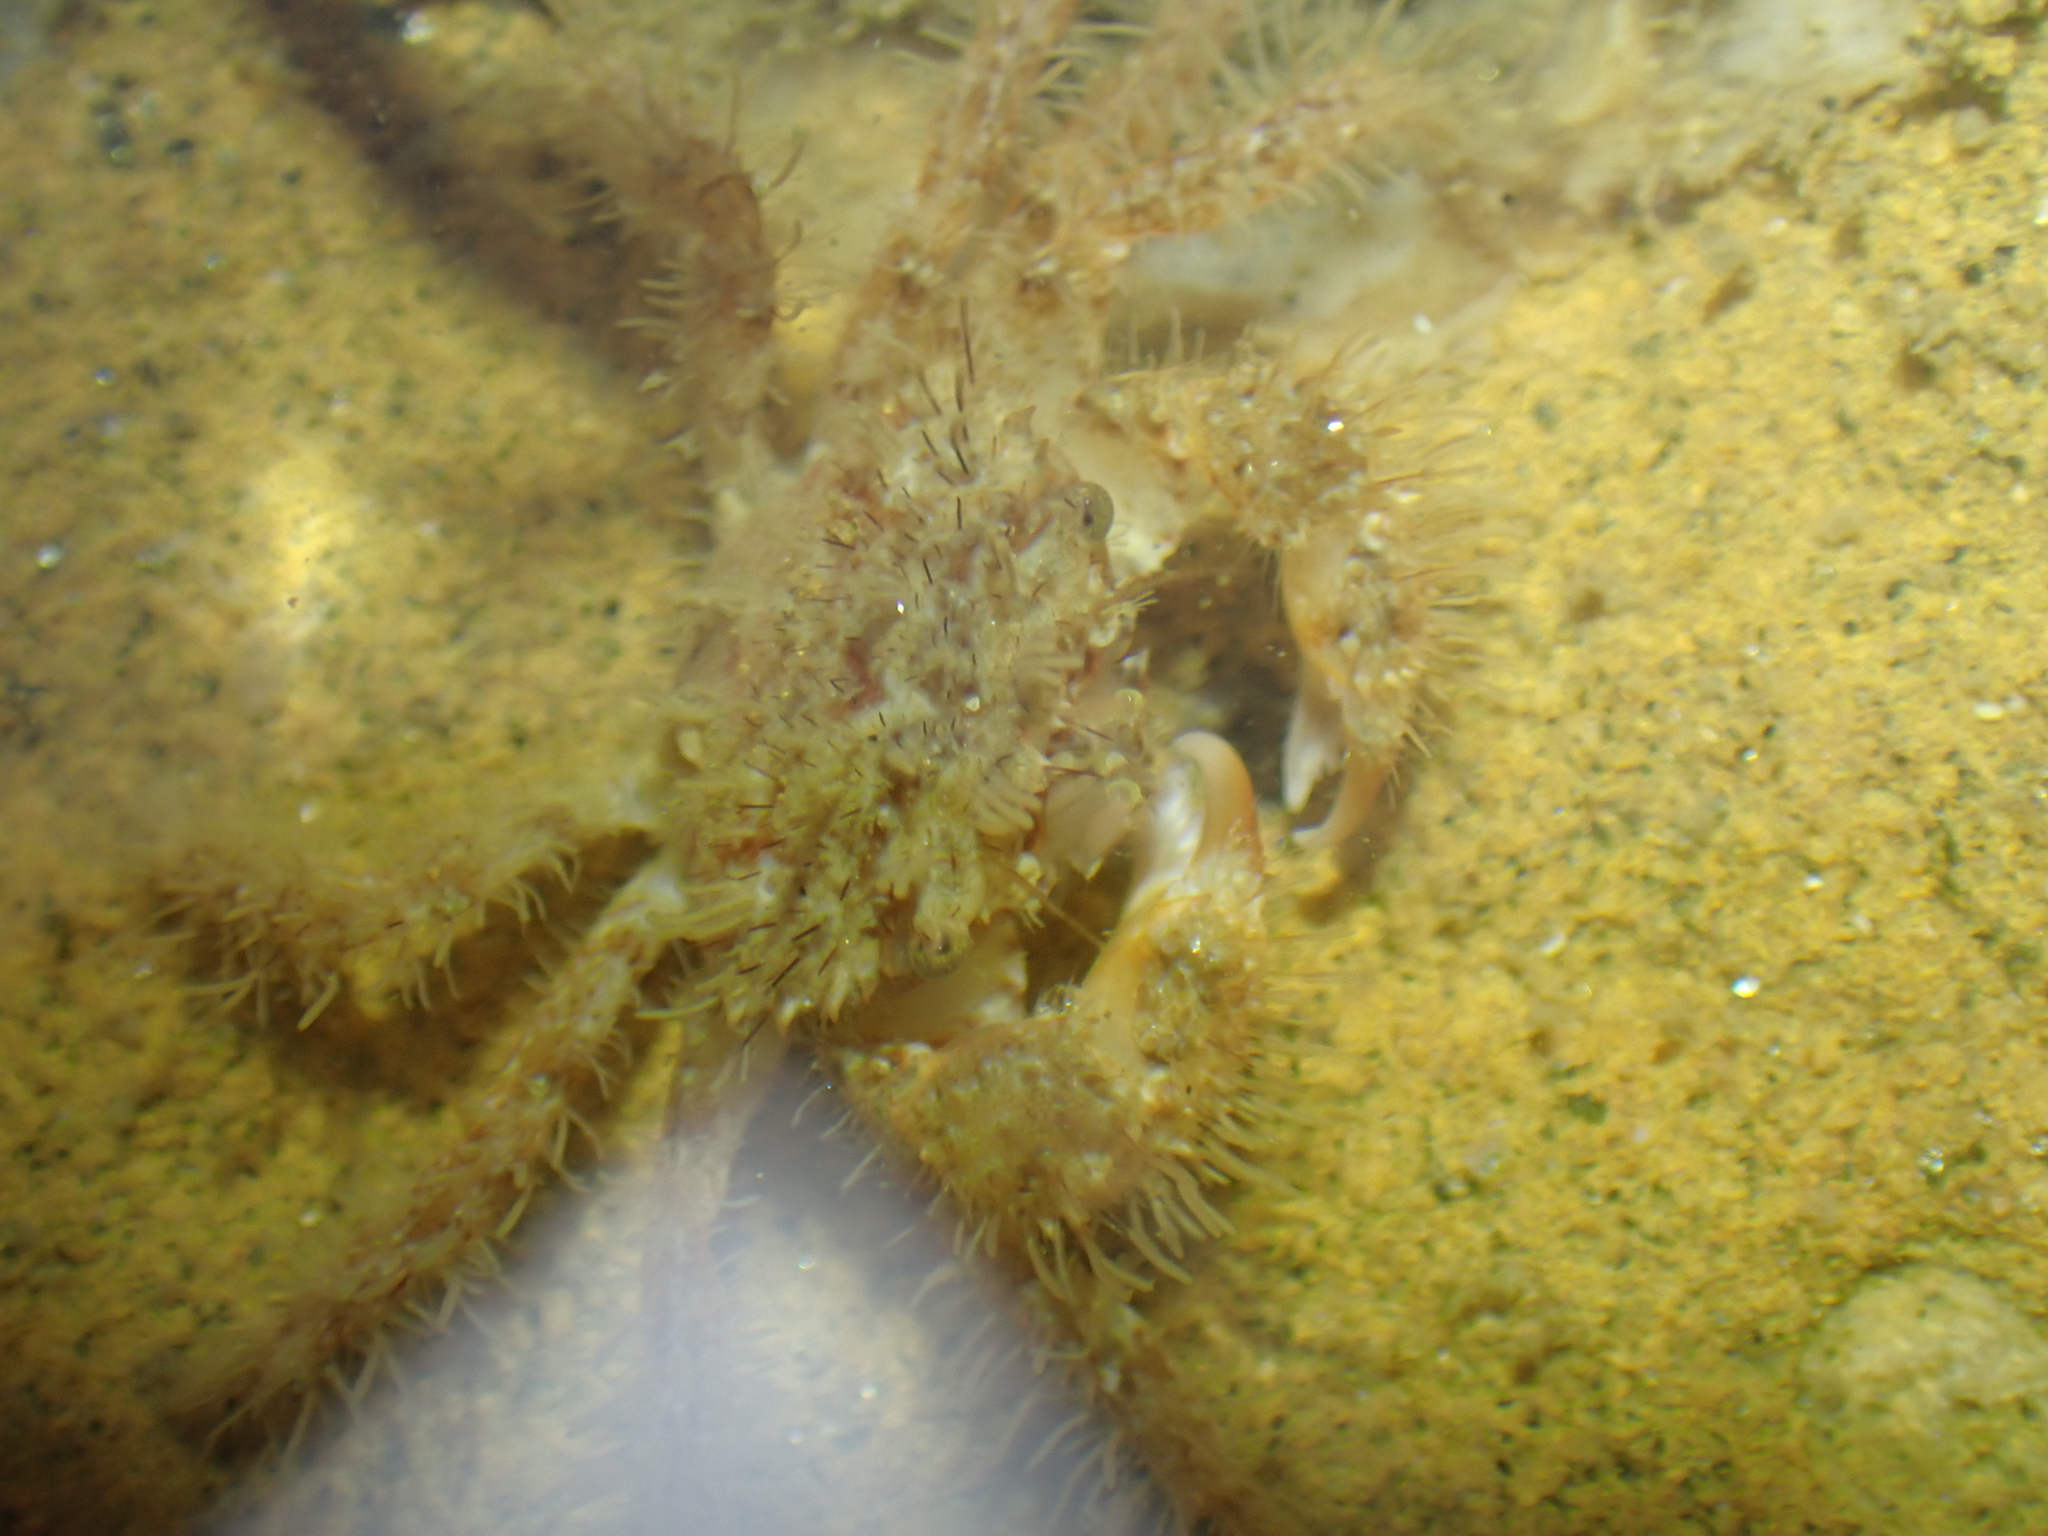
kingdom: Animalia
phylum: Arthropoda
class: Malacostraca
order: Decapoda
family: Pilumnidae
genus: Pilumnus
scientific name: Pilumnus spinohirsutus
